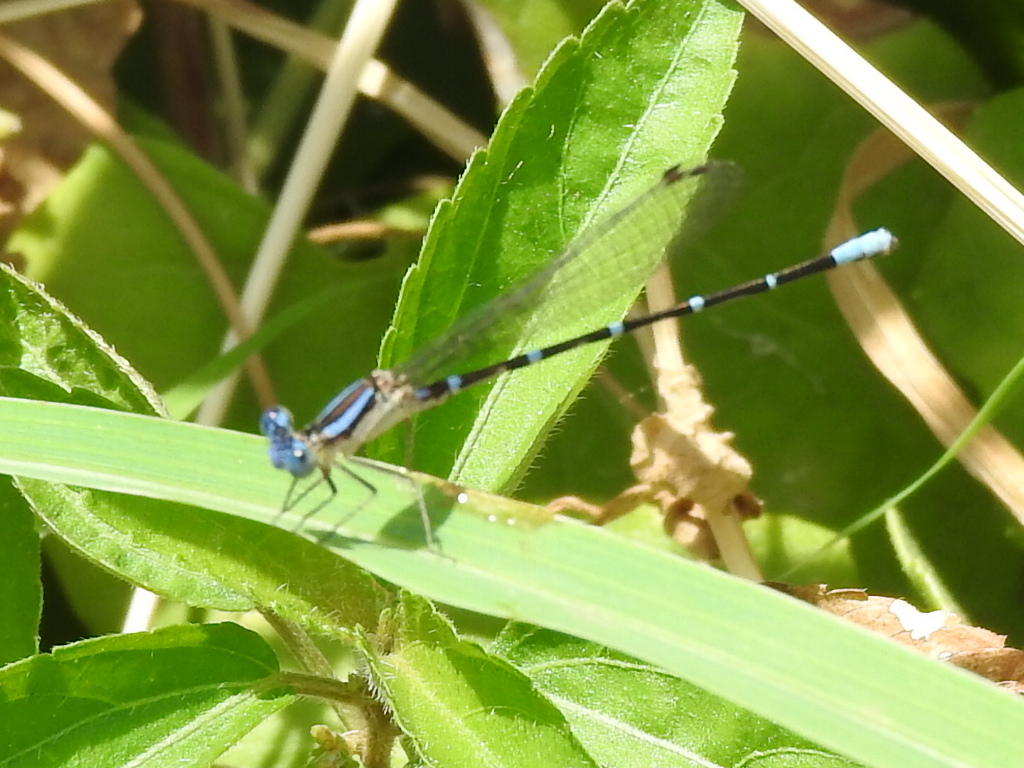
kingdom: Animalia
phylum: Arthropoda
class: Insecta
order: Odonata
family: Coenagrionidae
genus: Argia
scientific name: Argia sedula
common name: Blue-ringed dancer
